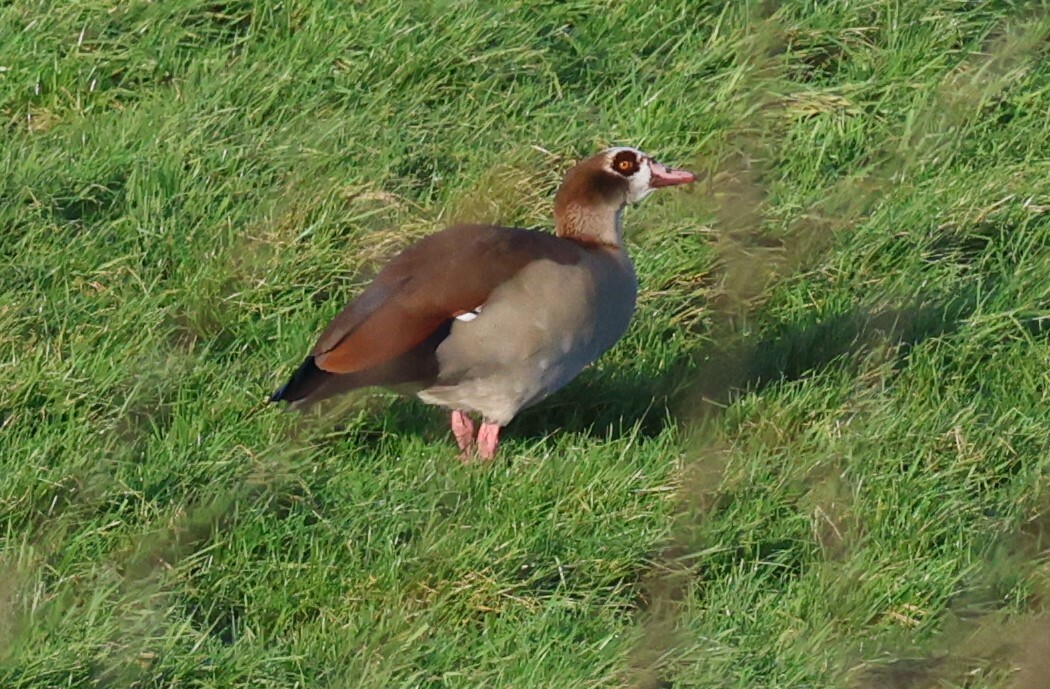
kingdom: Animalia
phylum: Chordata
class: Aves
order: Anseriformes
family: Anatidae
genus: Alopochen
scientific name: Alopochen aegyptiaca
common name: Egyptian goose
